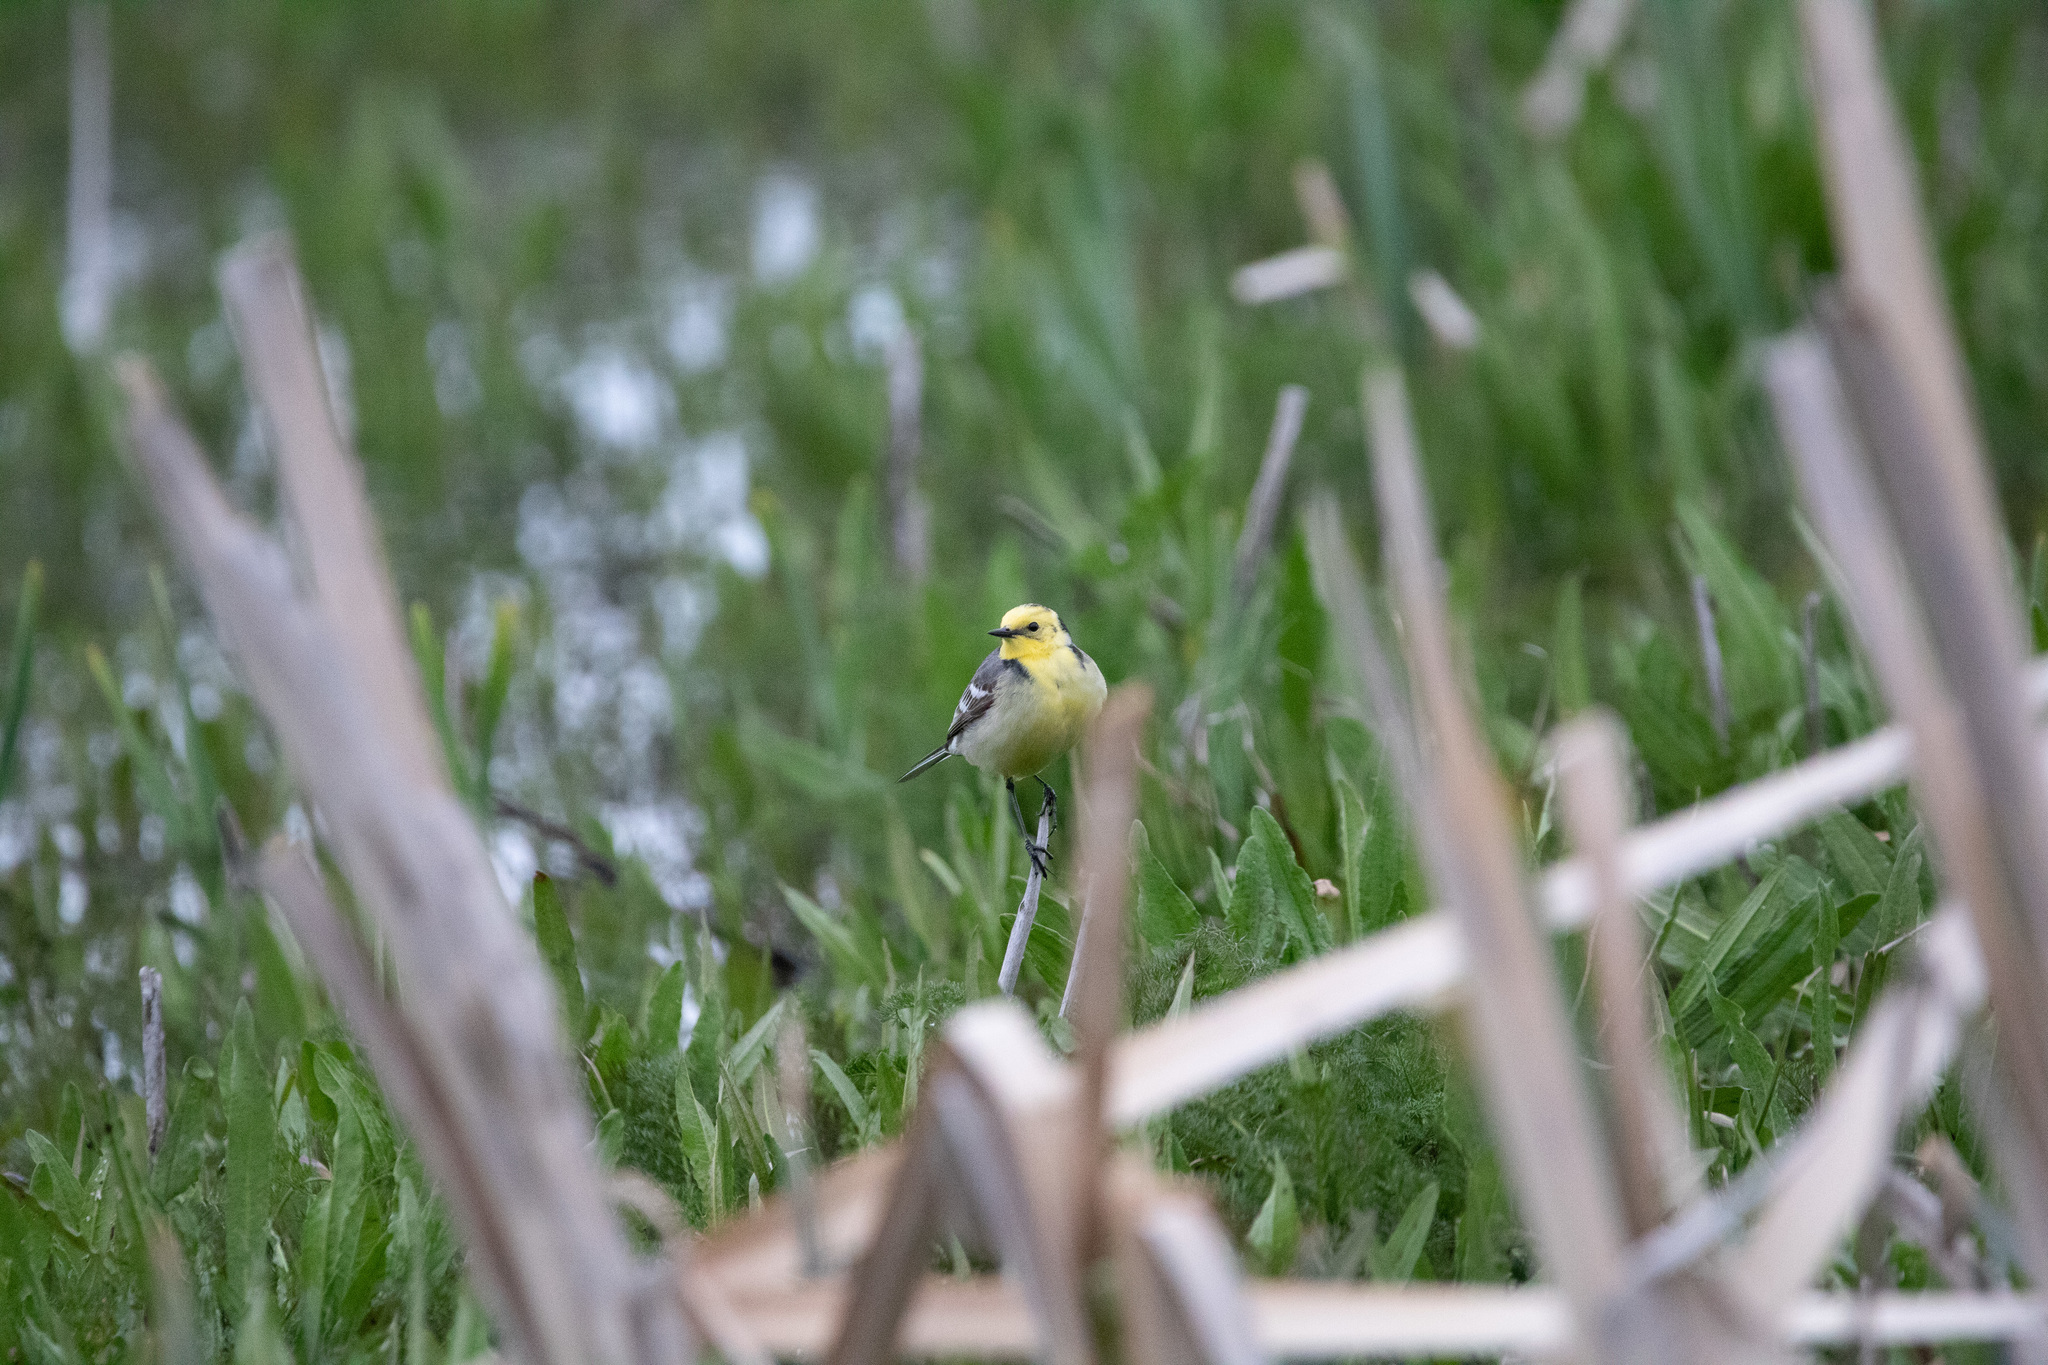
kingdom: Animalia
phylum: Chordata
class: Aves
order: Passeriformes
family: Motacillidae
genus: Motacilla
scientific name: Motacilla citreola
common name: Citrine wagtail
